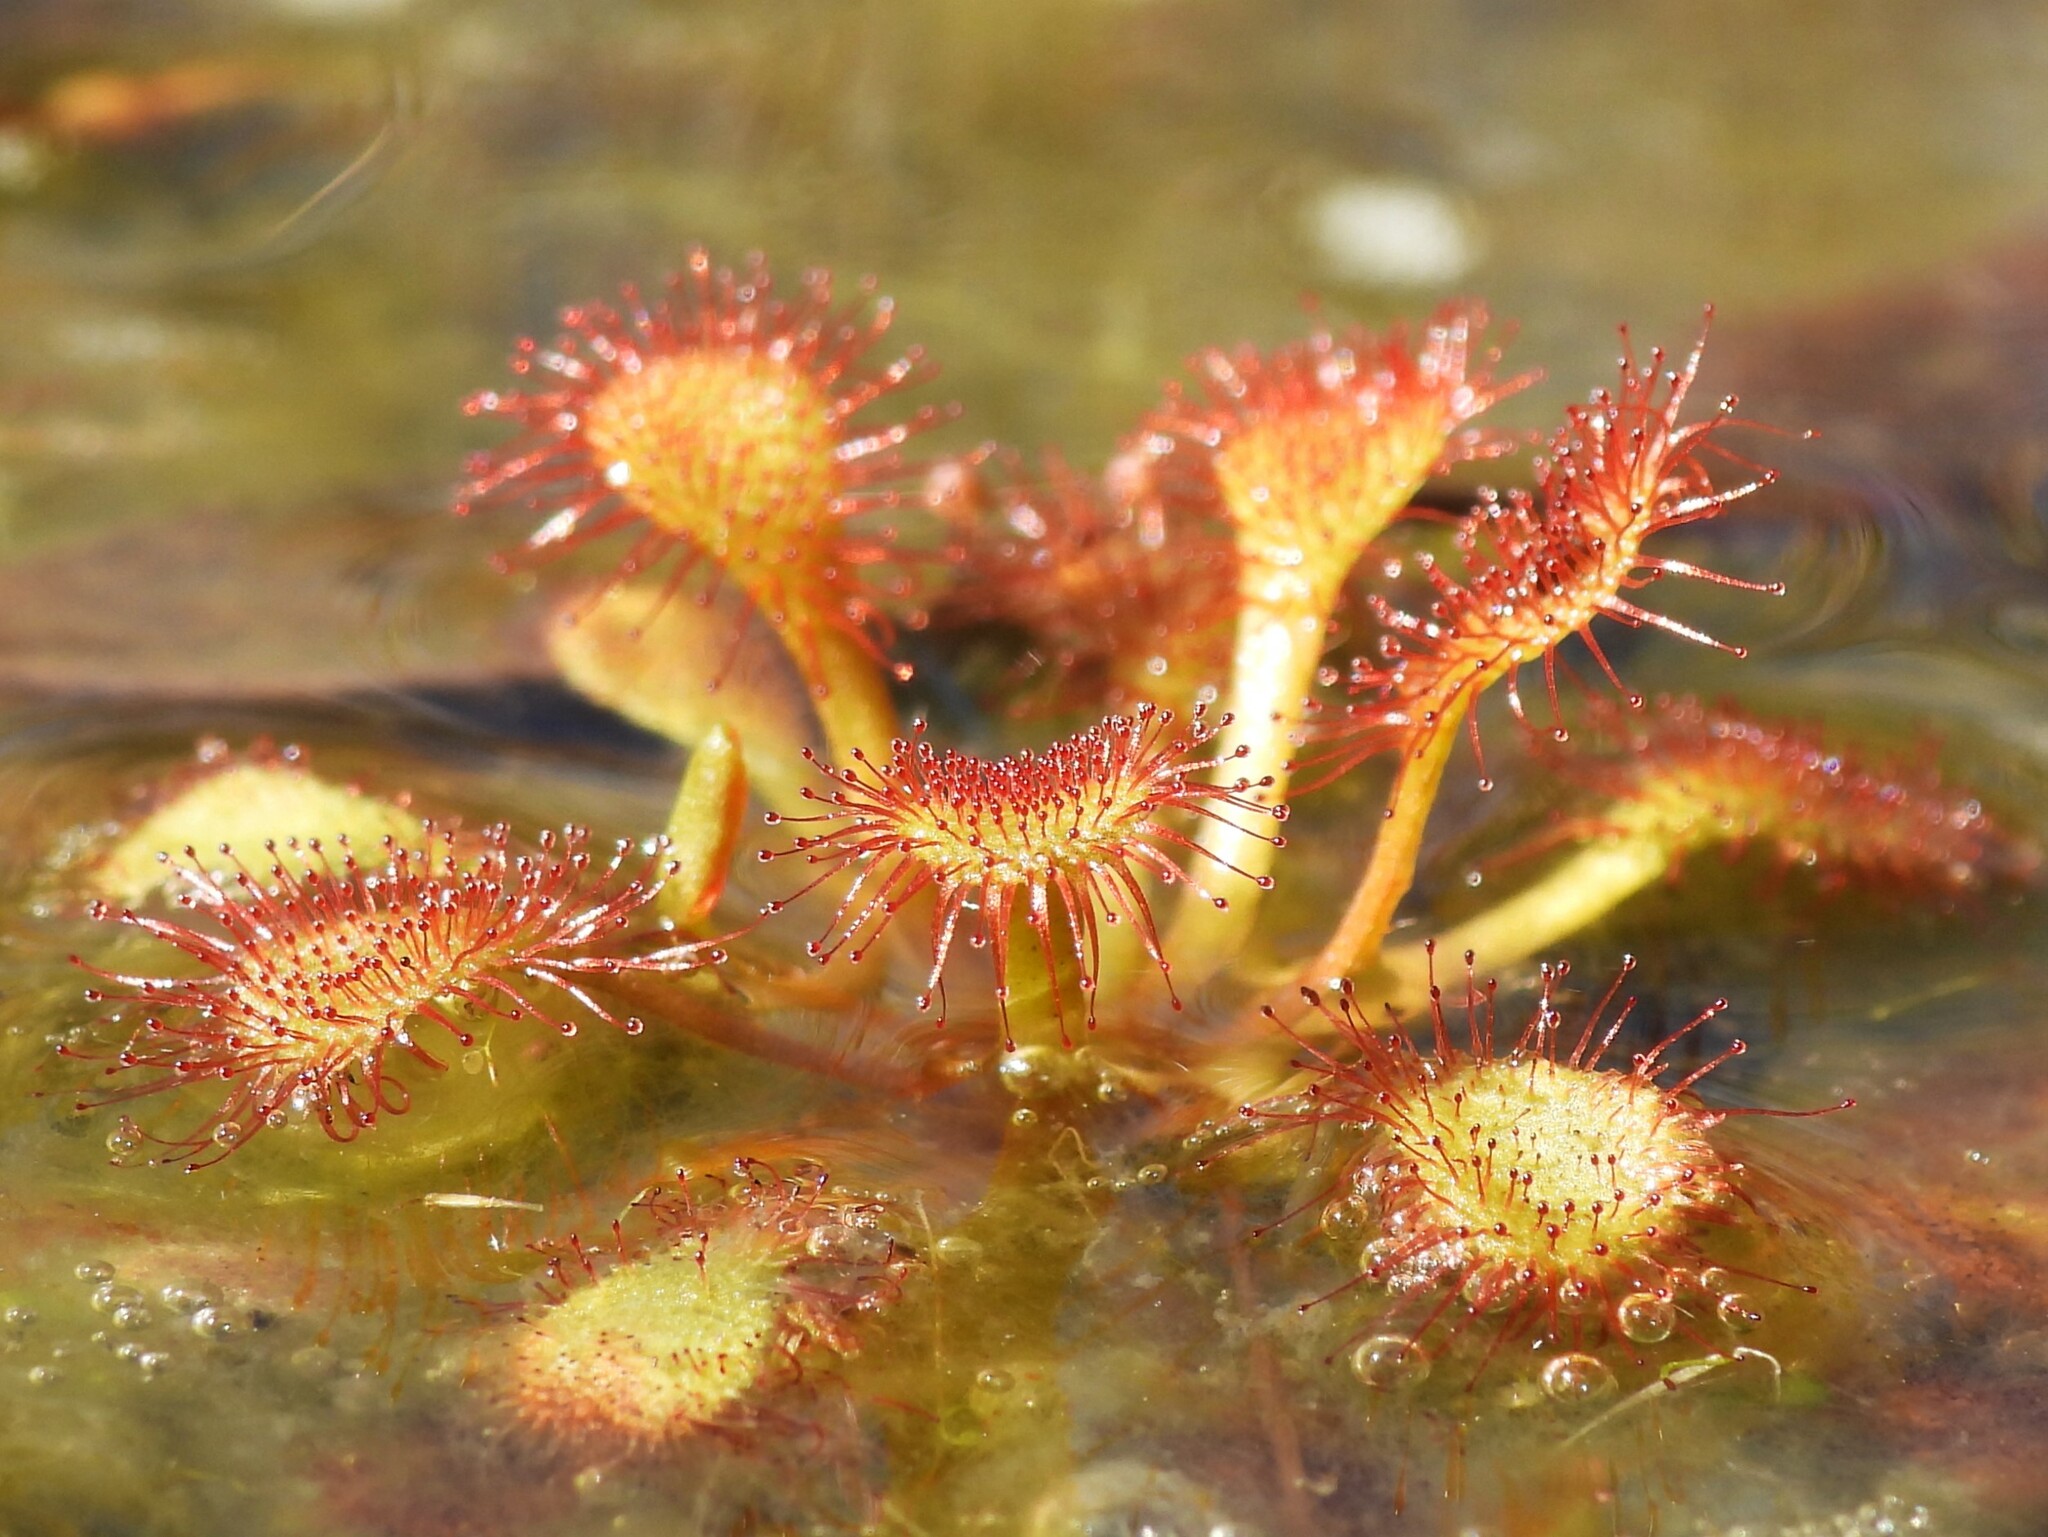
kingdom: Plantae
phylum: Tracheophyta
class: Magnoliopsida
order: Caryophyllales
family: Droseraceae
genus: Drosera
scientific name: Drosera capillaris
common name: Pink sundew
